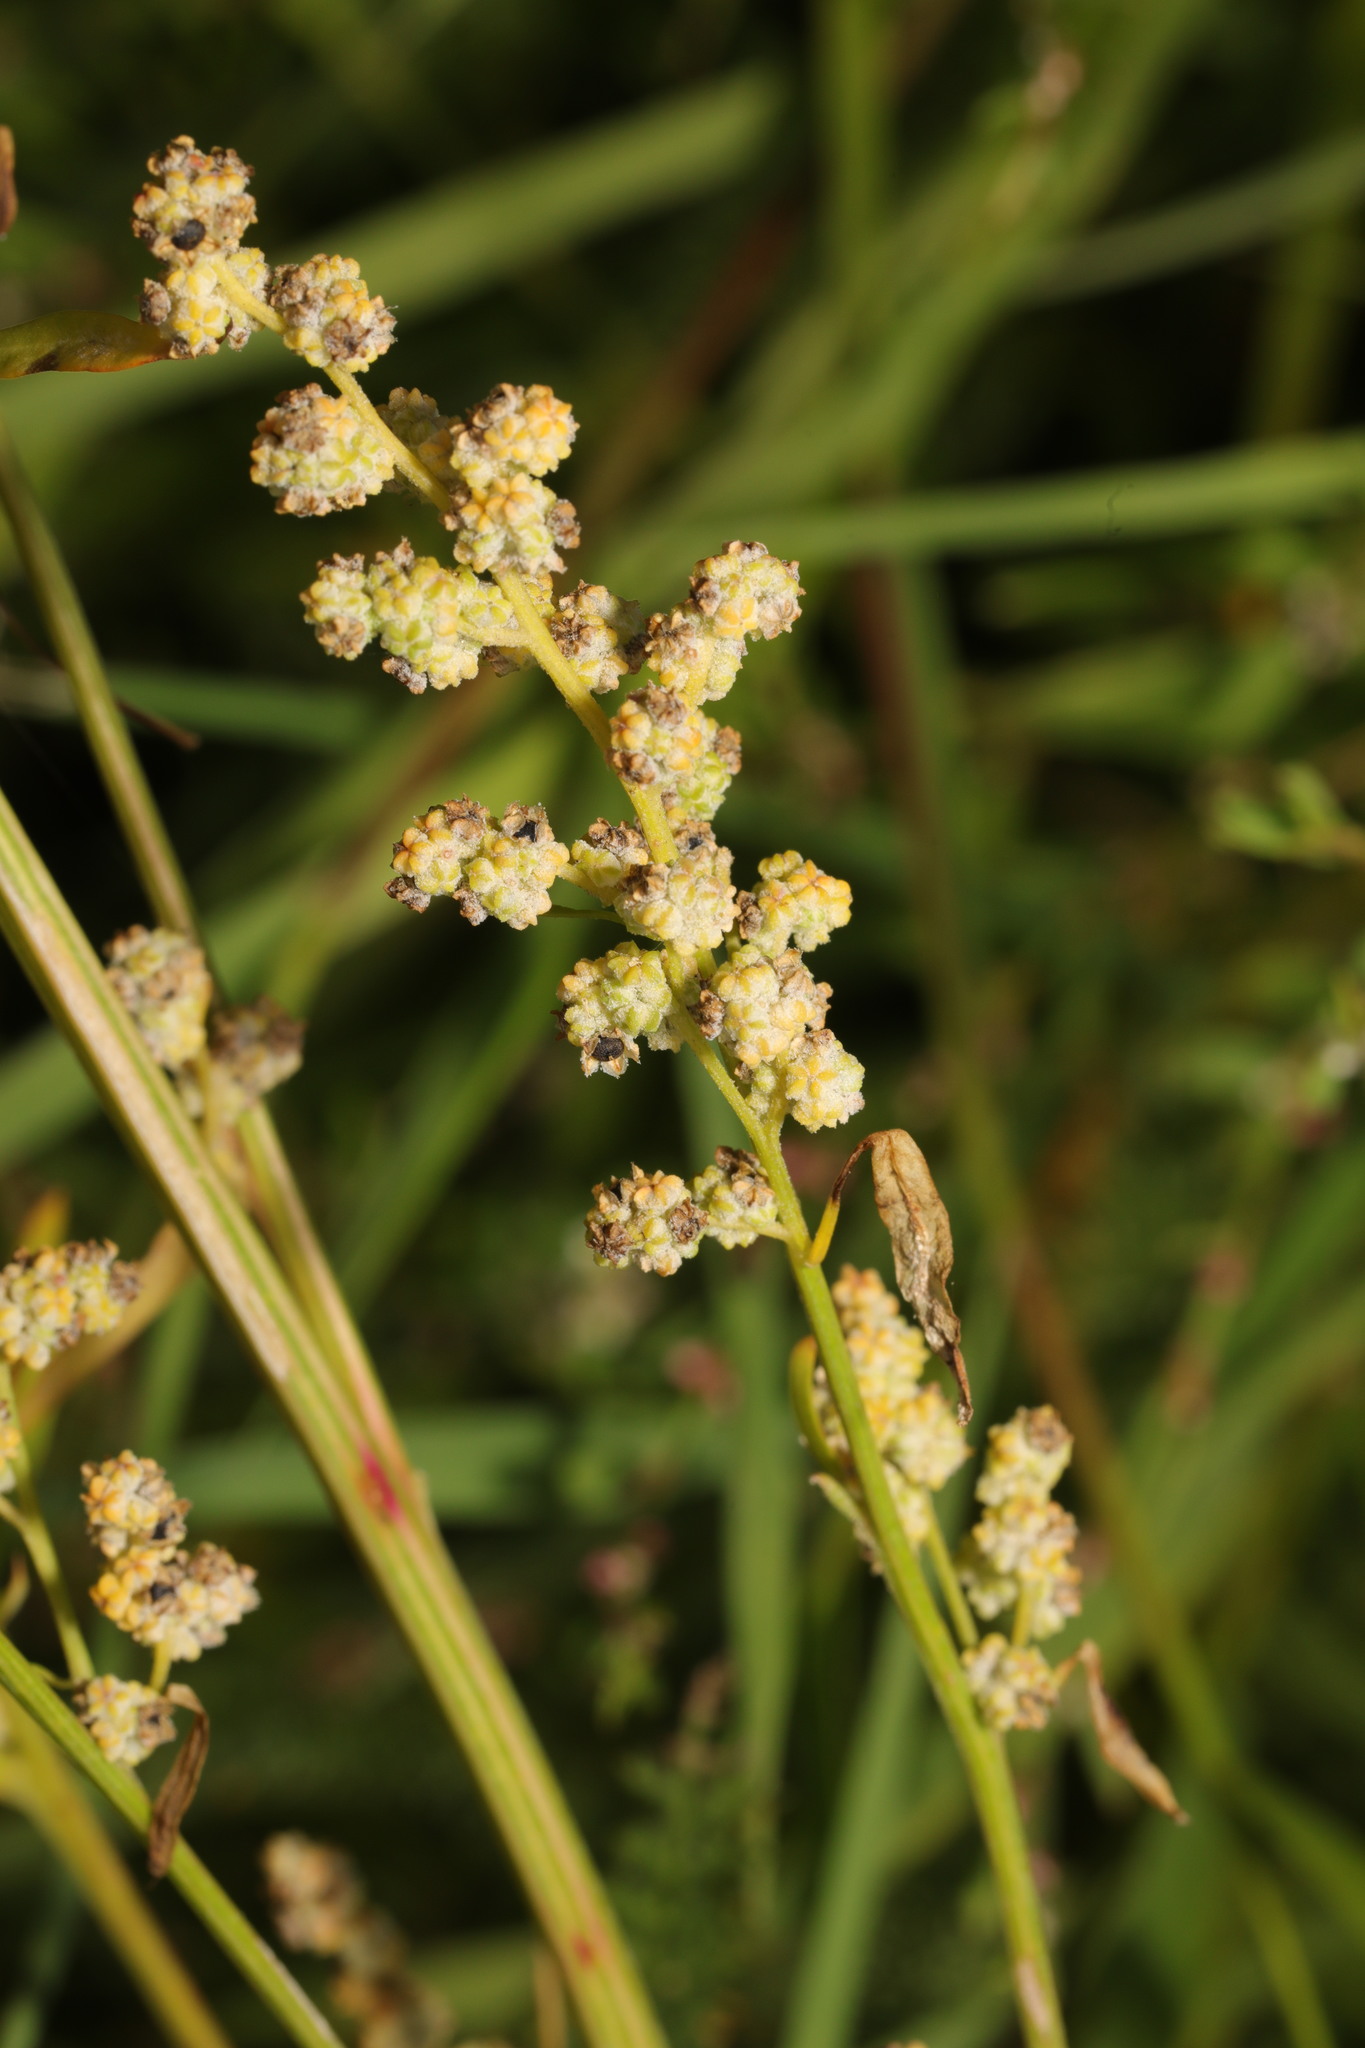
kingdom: Plantae
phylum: Tracheophyta
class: Magnoliopsida
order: Caryophyllales
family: Amaranthaceae
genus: Chenopodium
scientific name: Chenopodium album
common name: Fat-hen
